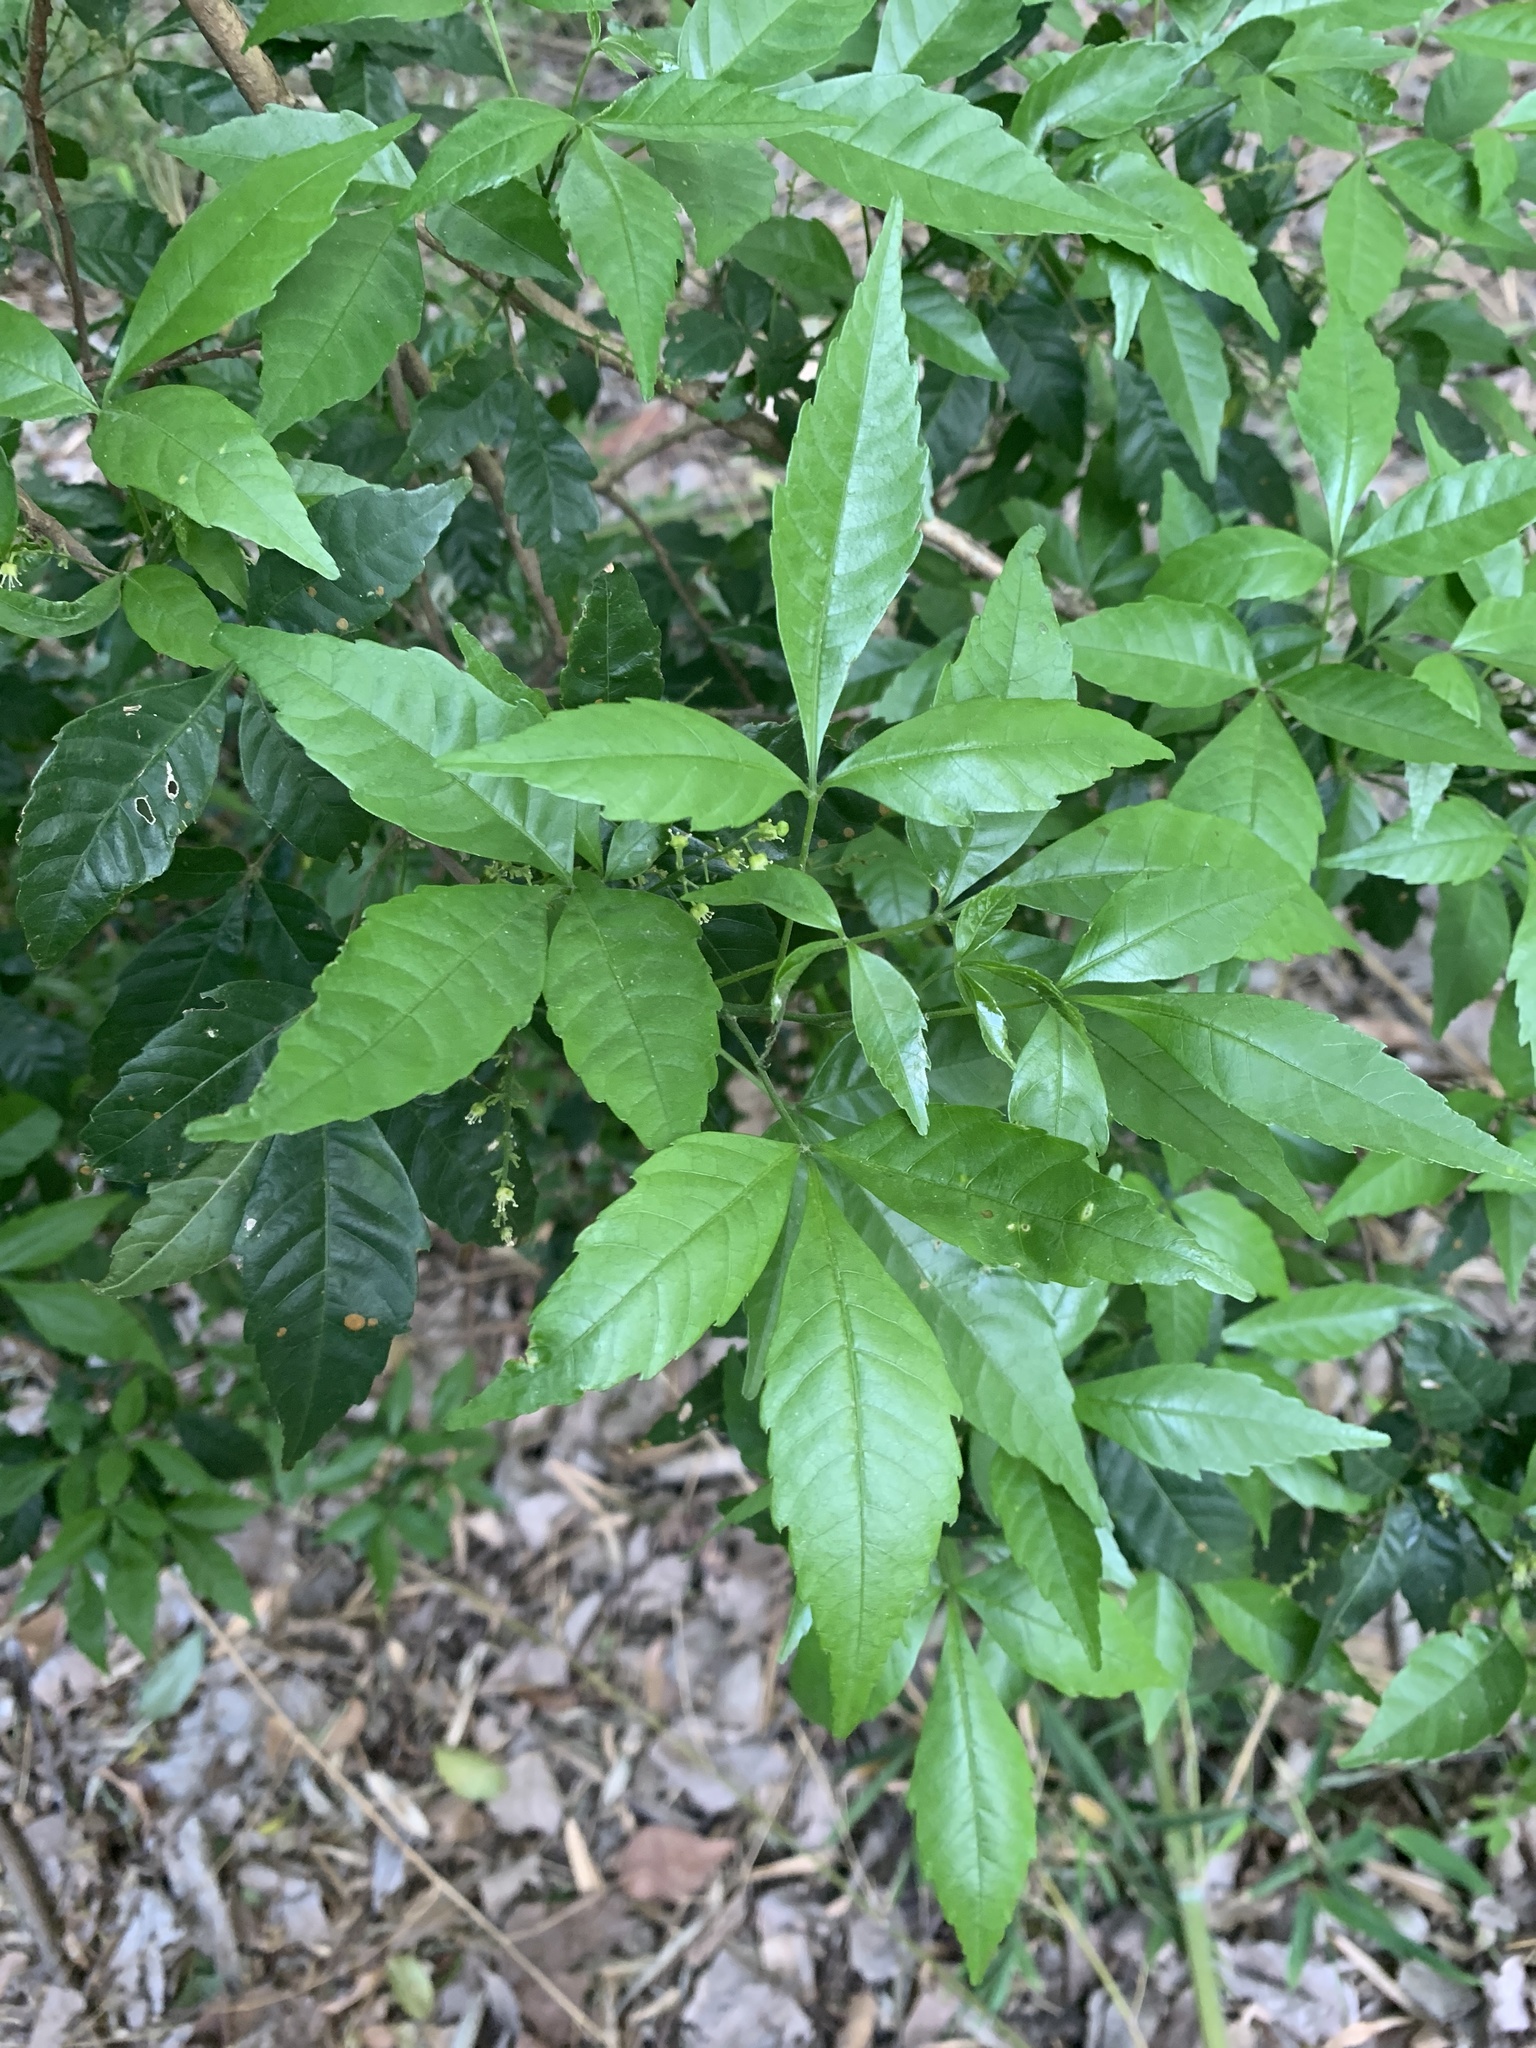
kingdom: Plantae
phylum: Tracheophyta
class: Magnoliopsida
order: Sapindales
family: Sapindaceae
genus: Allophylus
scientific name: Allophylus edulis
